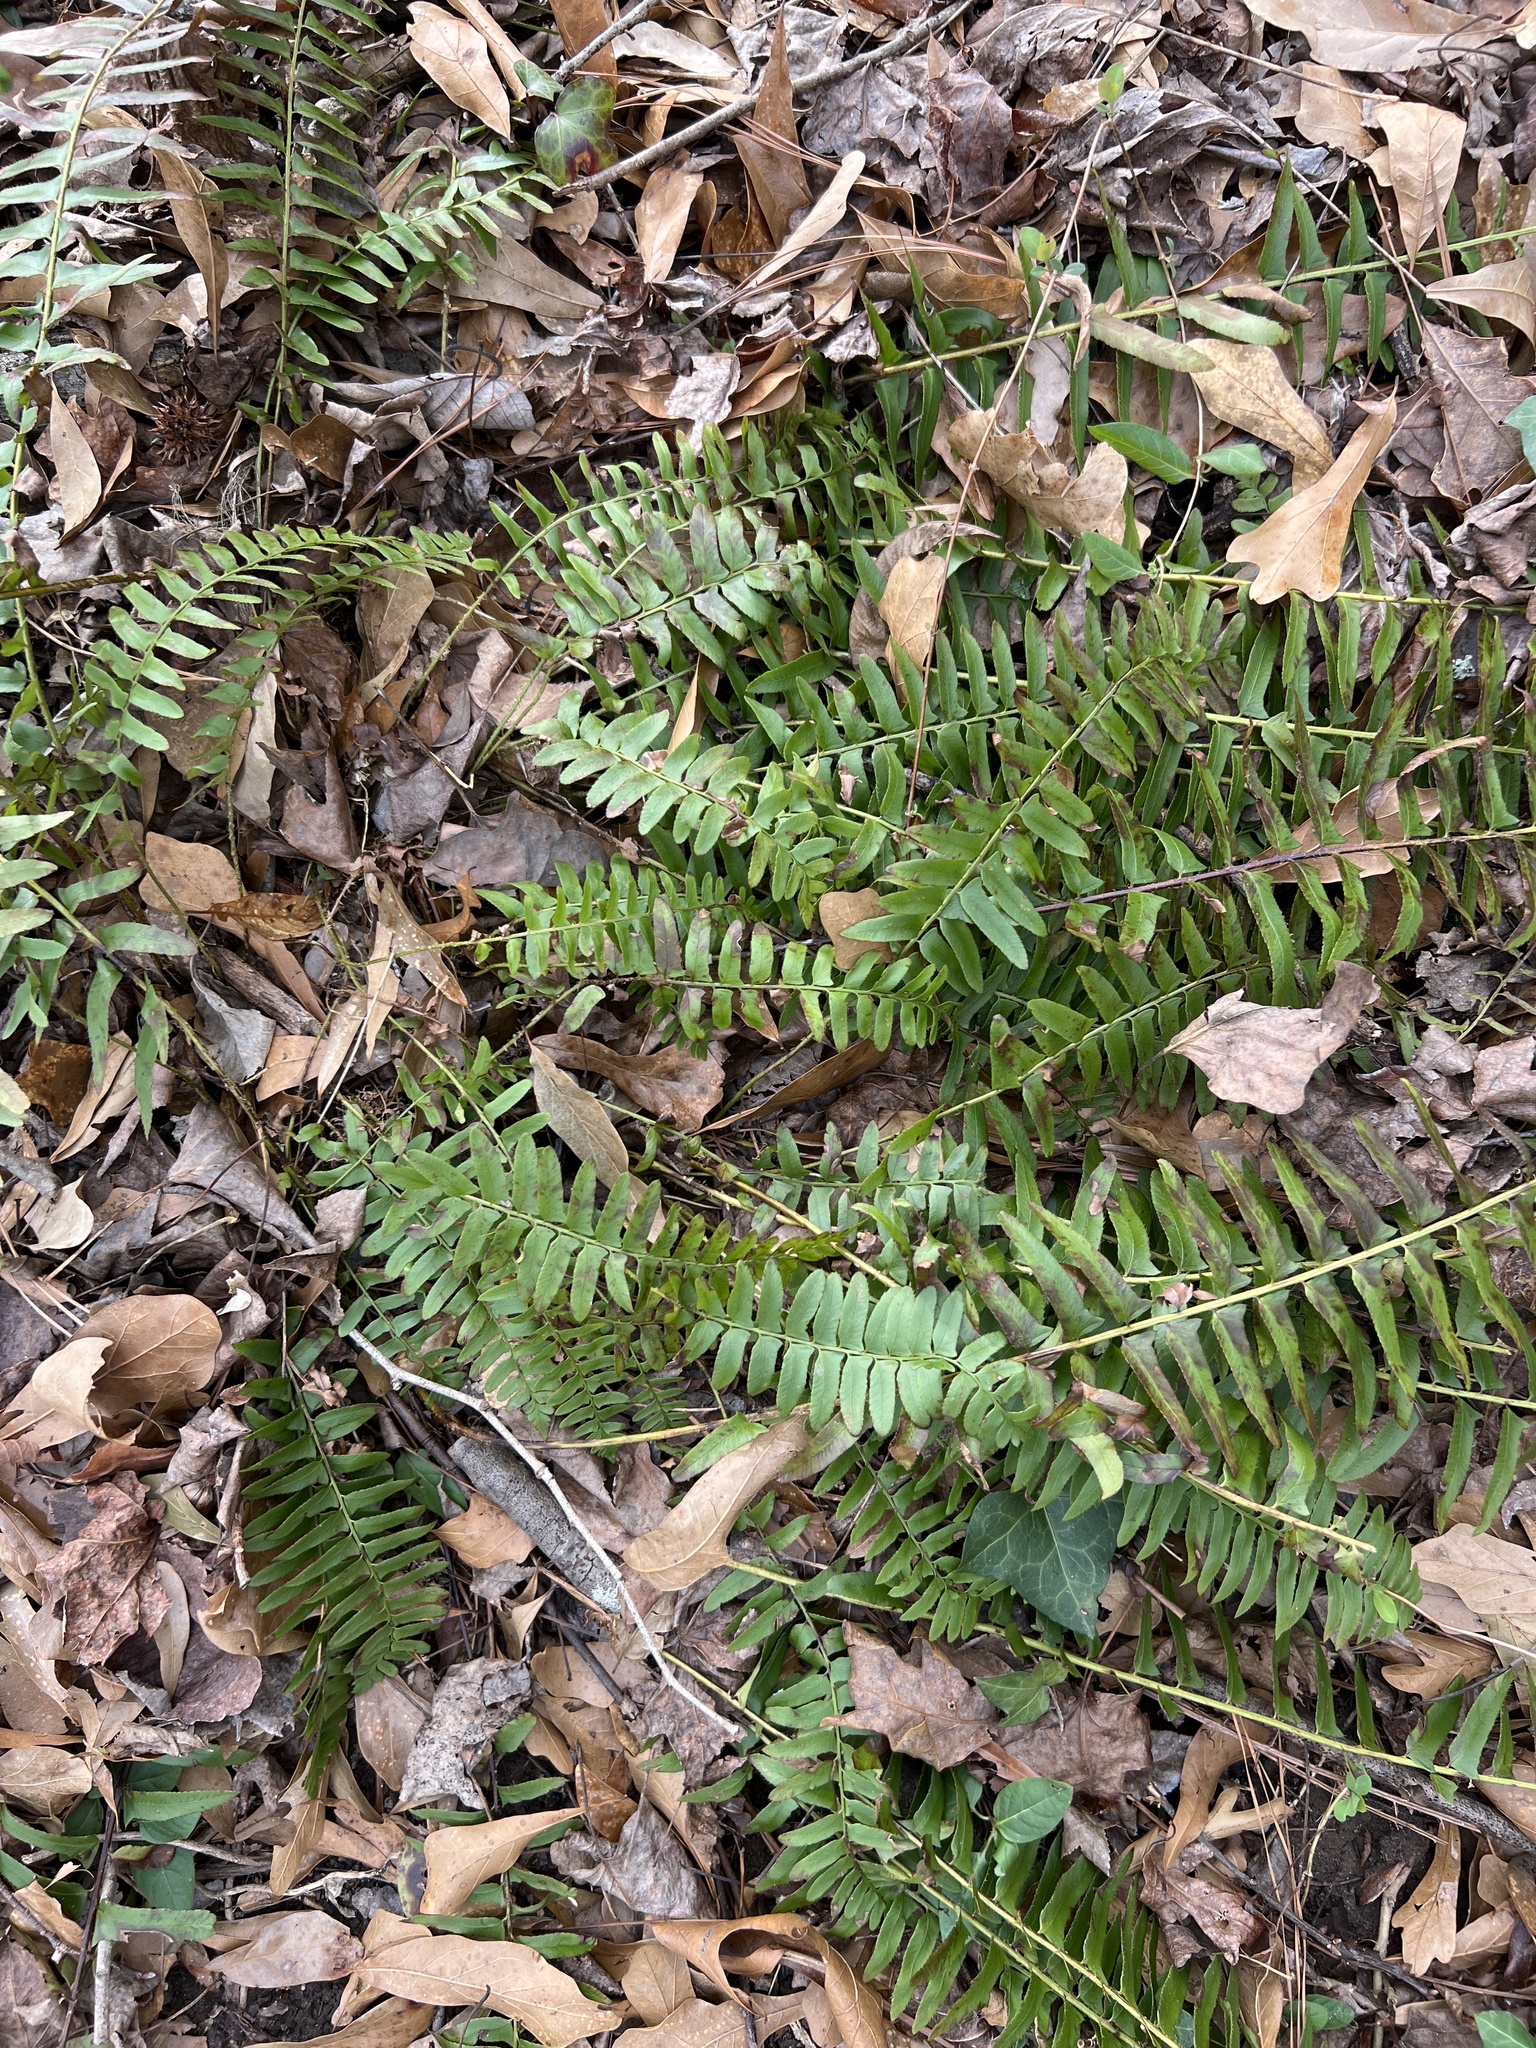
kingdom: Plantae
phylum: Tracheophyta
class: Polypodiopsida
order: Polypodiales
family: Dryopteridaceae
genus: Polystichum
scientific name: Polystichum acrostichoides
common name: Christmas fern
